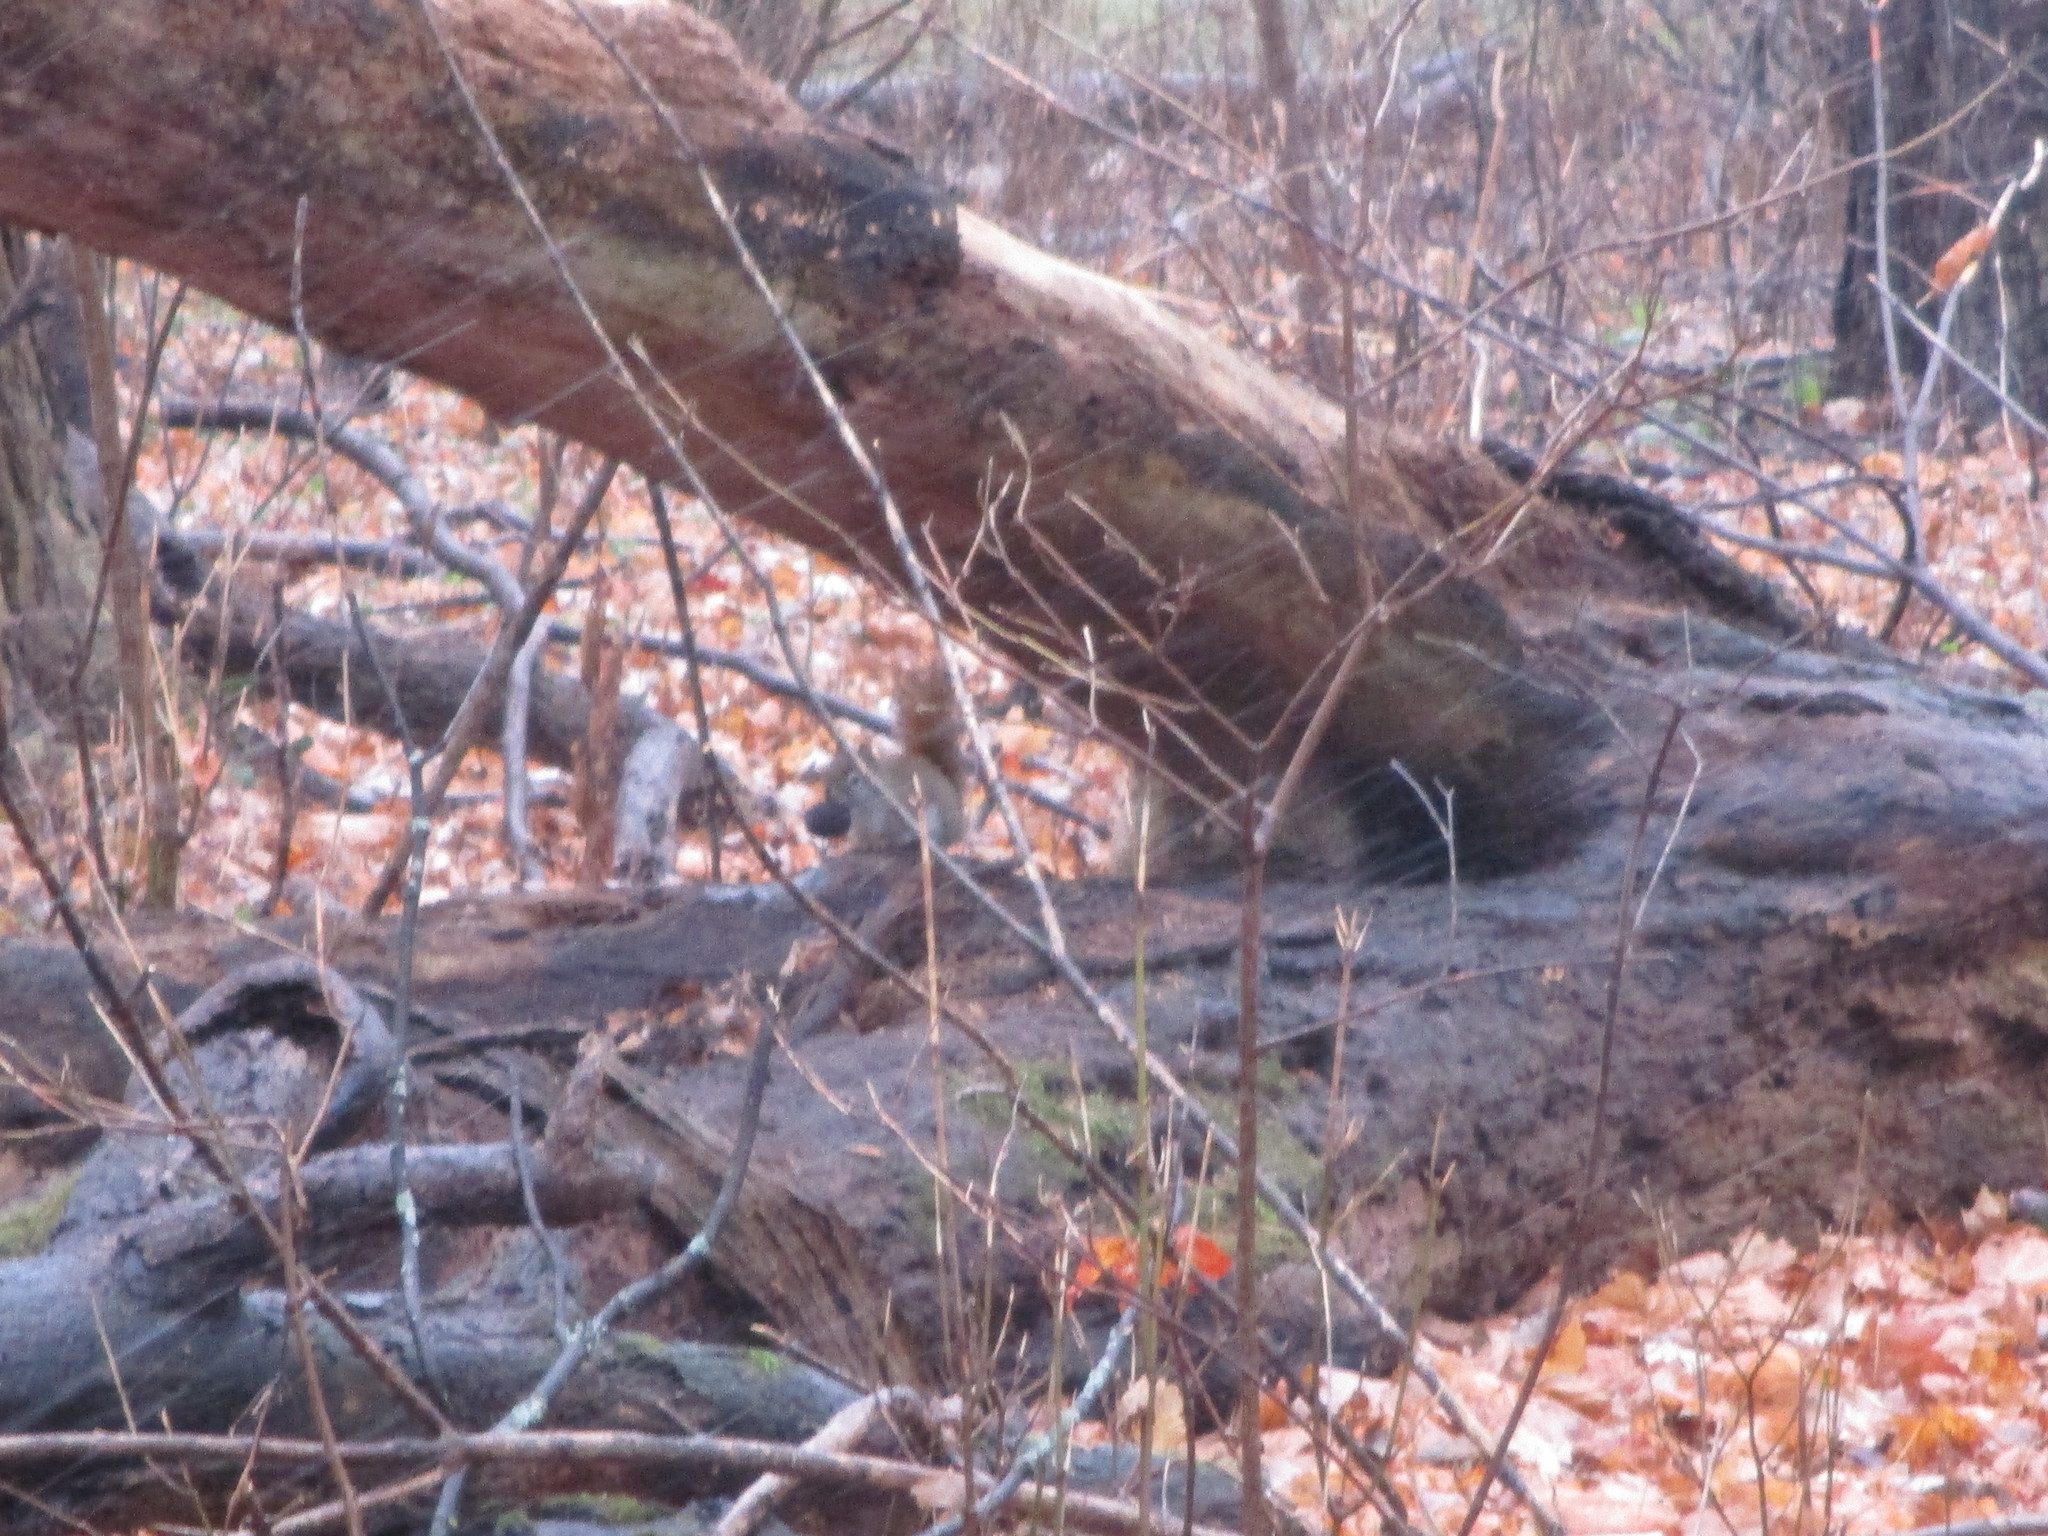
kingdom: Animalia
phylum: Chordata
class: Mammalia
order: Rodentia
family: Sciuridae
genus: Tamiasciurus
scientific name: Tamiasciurus hudsonicus
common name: Red squirrel
